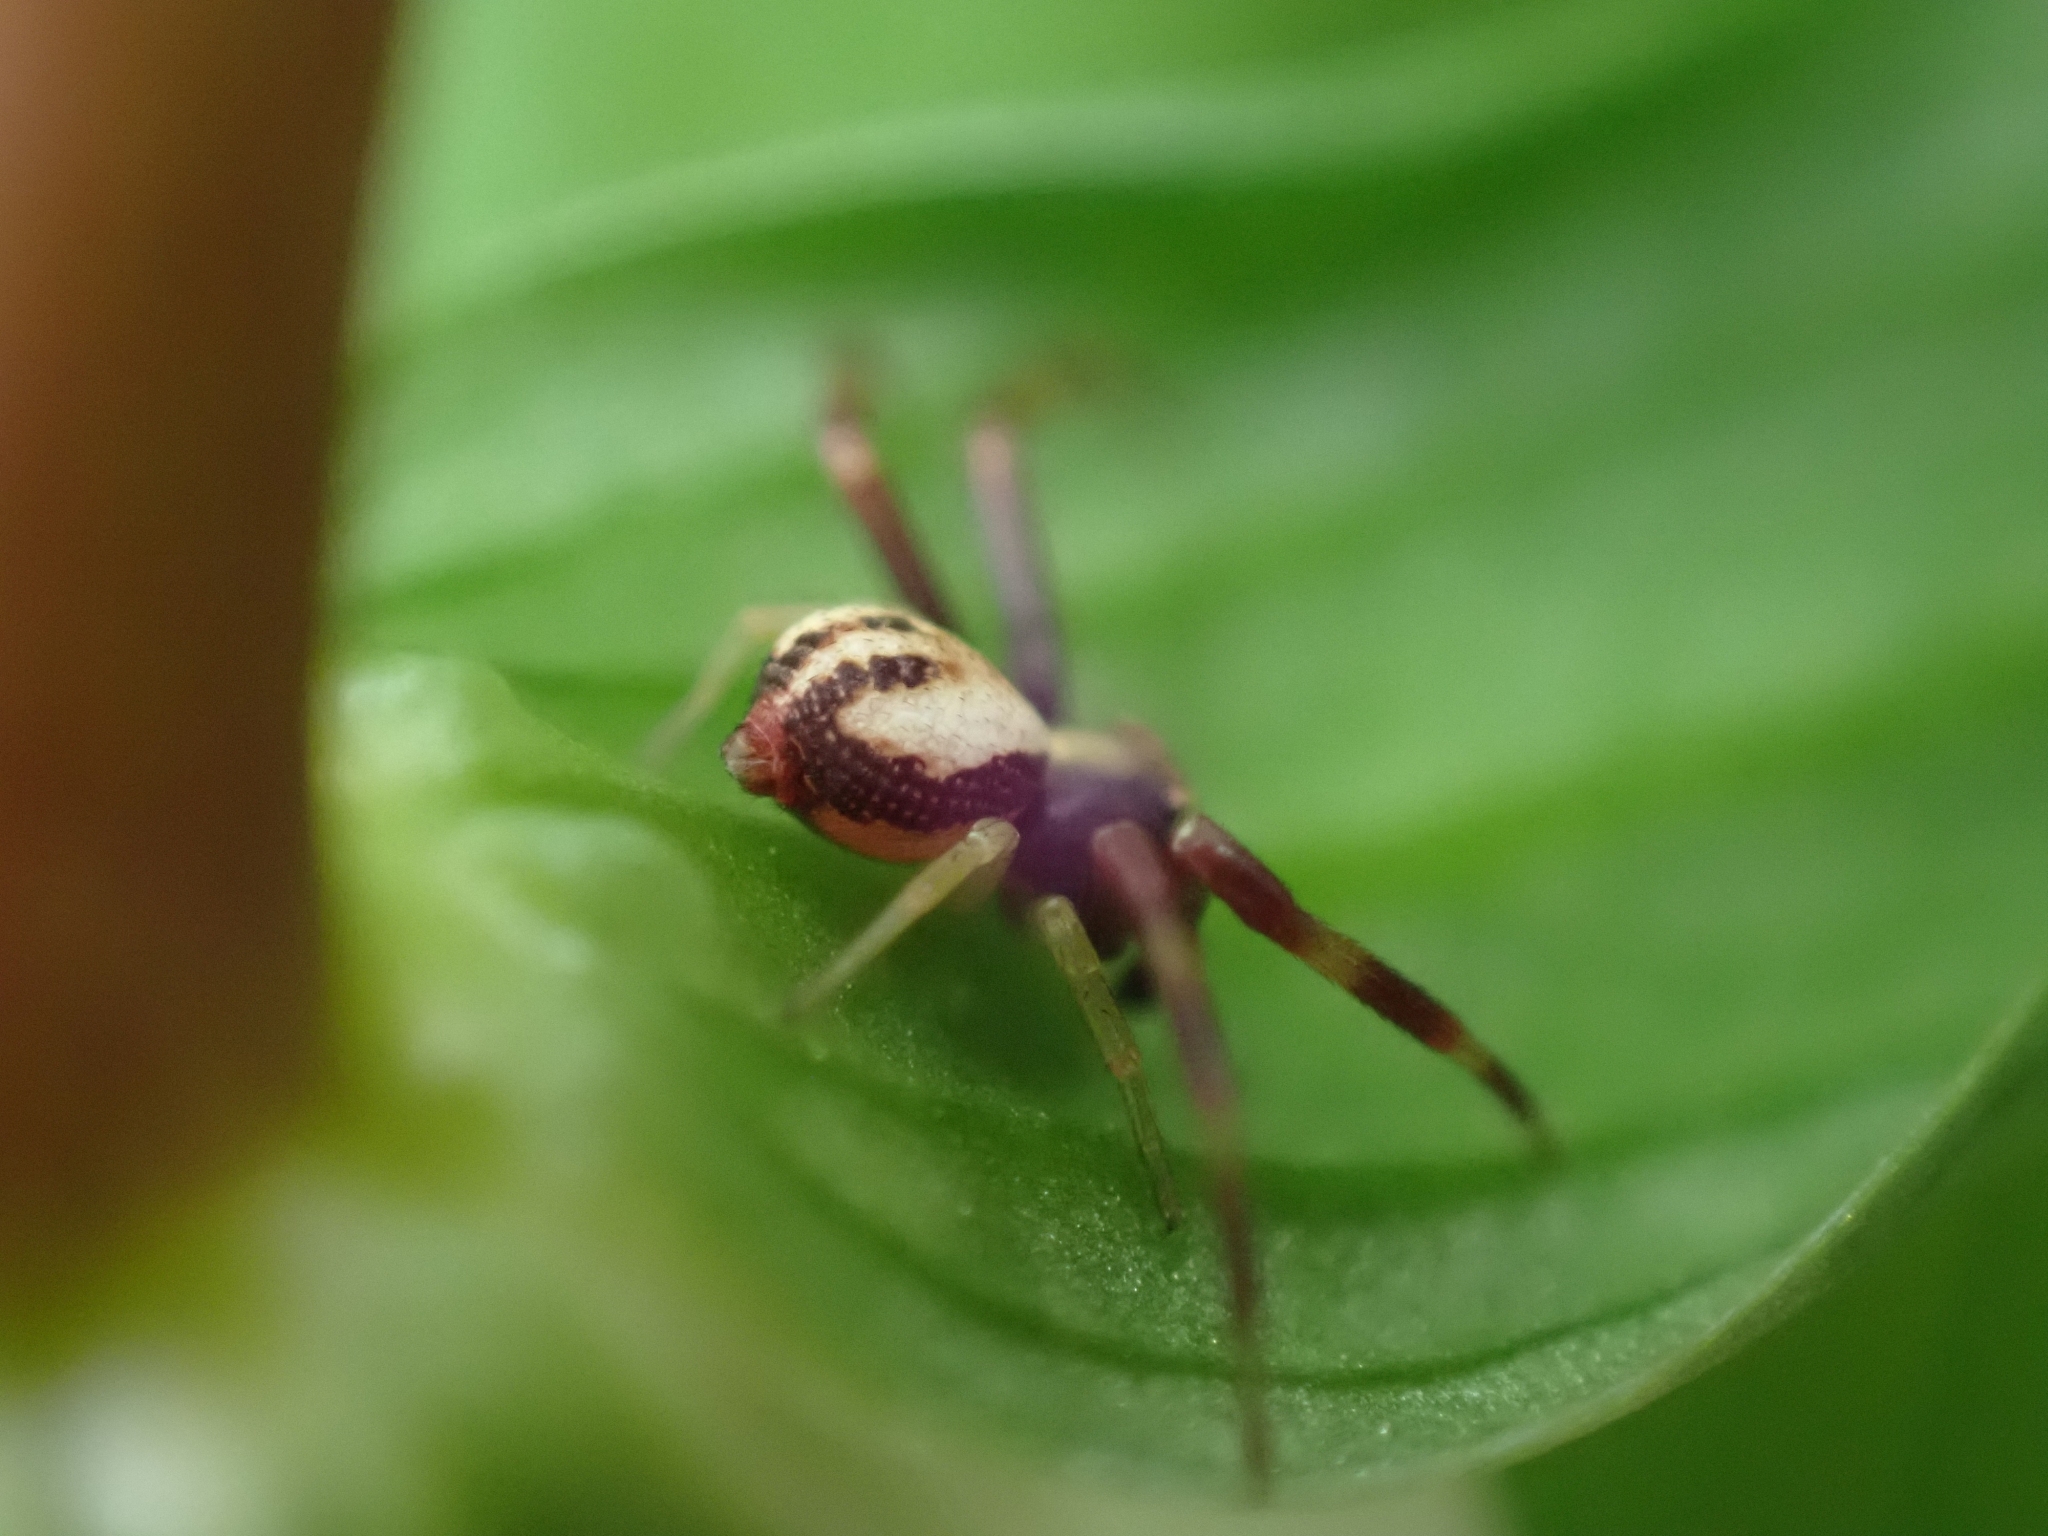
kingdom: Animalia
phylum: Arthropoda
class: Arachnida
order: Araneae
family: Thomisidae
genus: Misumena
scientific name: Misumena vatia
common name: Goldenrod crab spider
